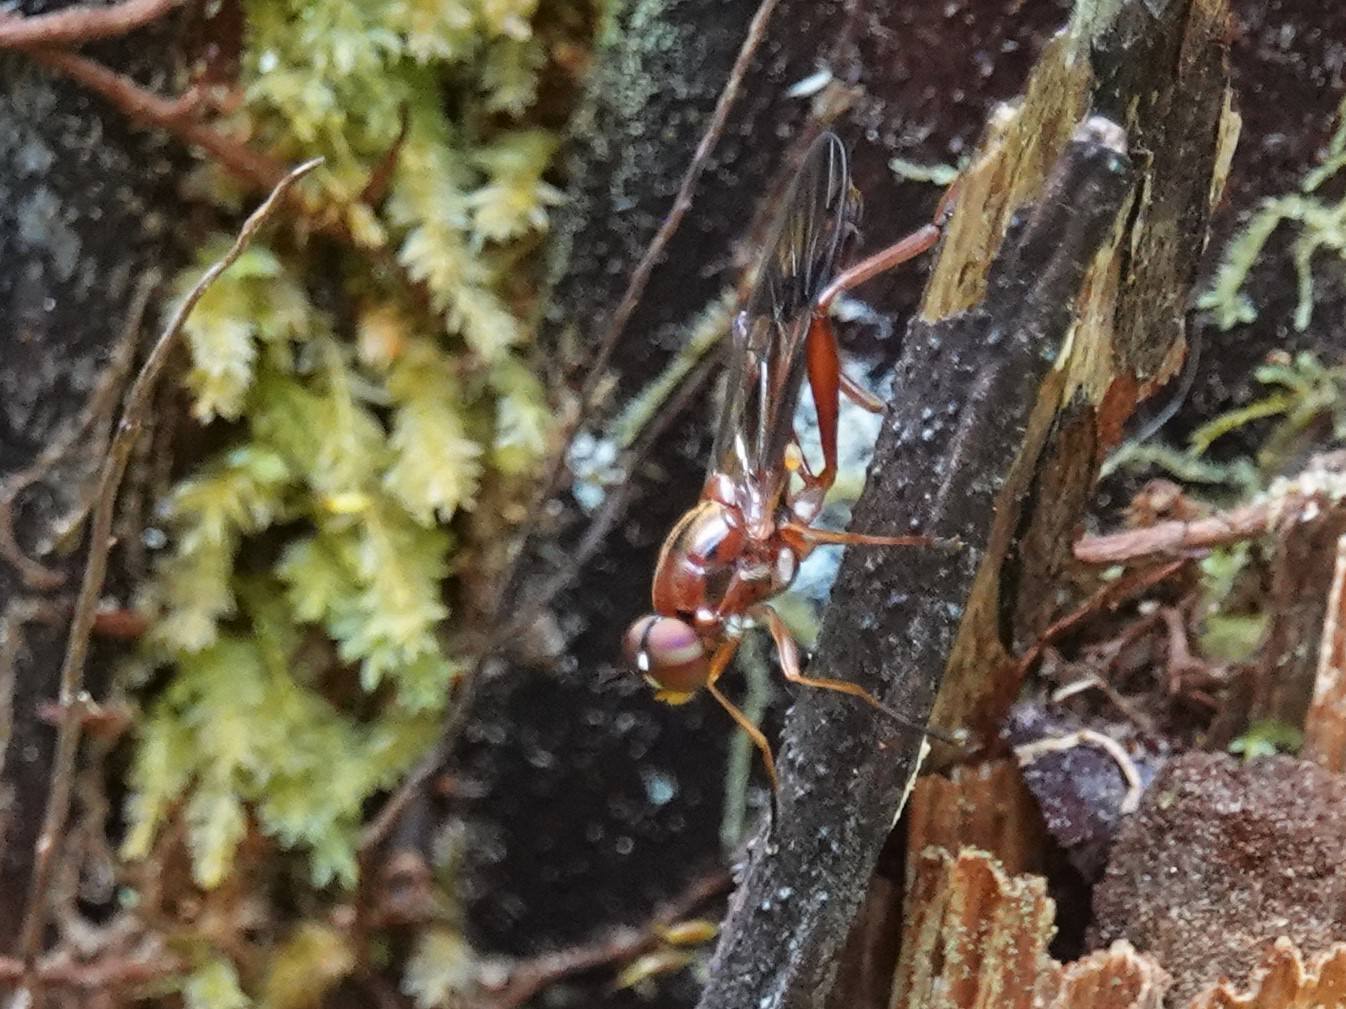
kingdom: Animalia
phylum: Arthropoda
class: Insecta
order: Diptera
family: Stratiomyidae
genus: Benhamyia
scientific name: Benhamyia straznitzkii
